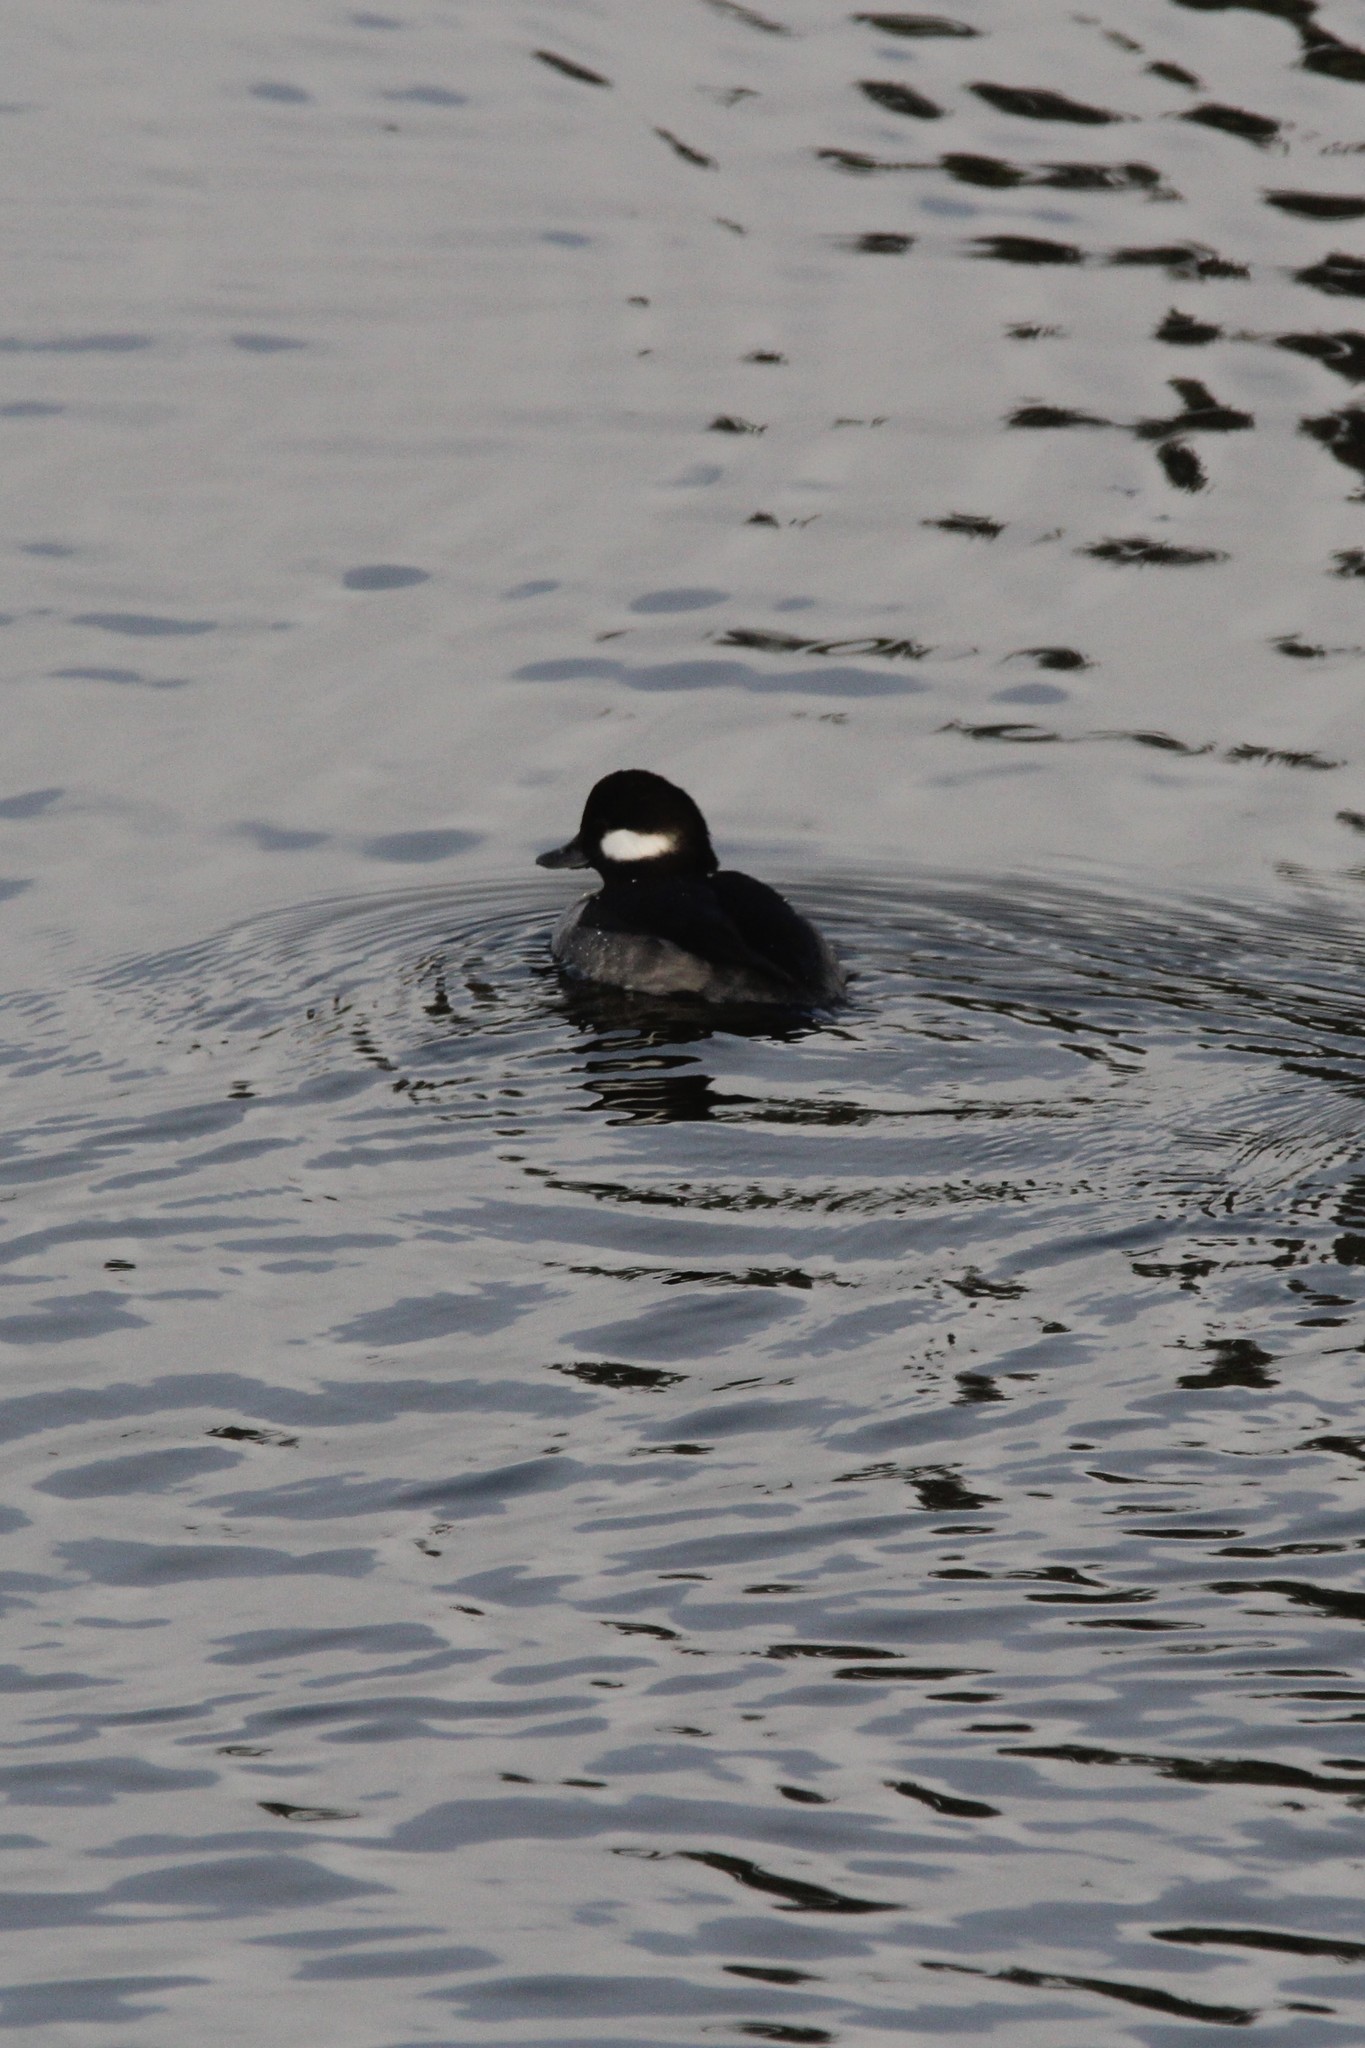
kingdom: Animalia
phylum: Chordata
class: Aves
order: Anseriformes
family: Anatidae
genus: Bucephala
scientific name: Bucephala albeola
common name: Bufflehead
